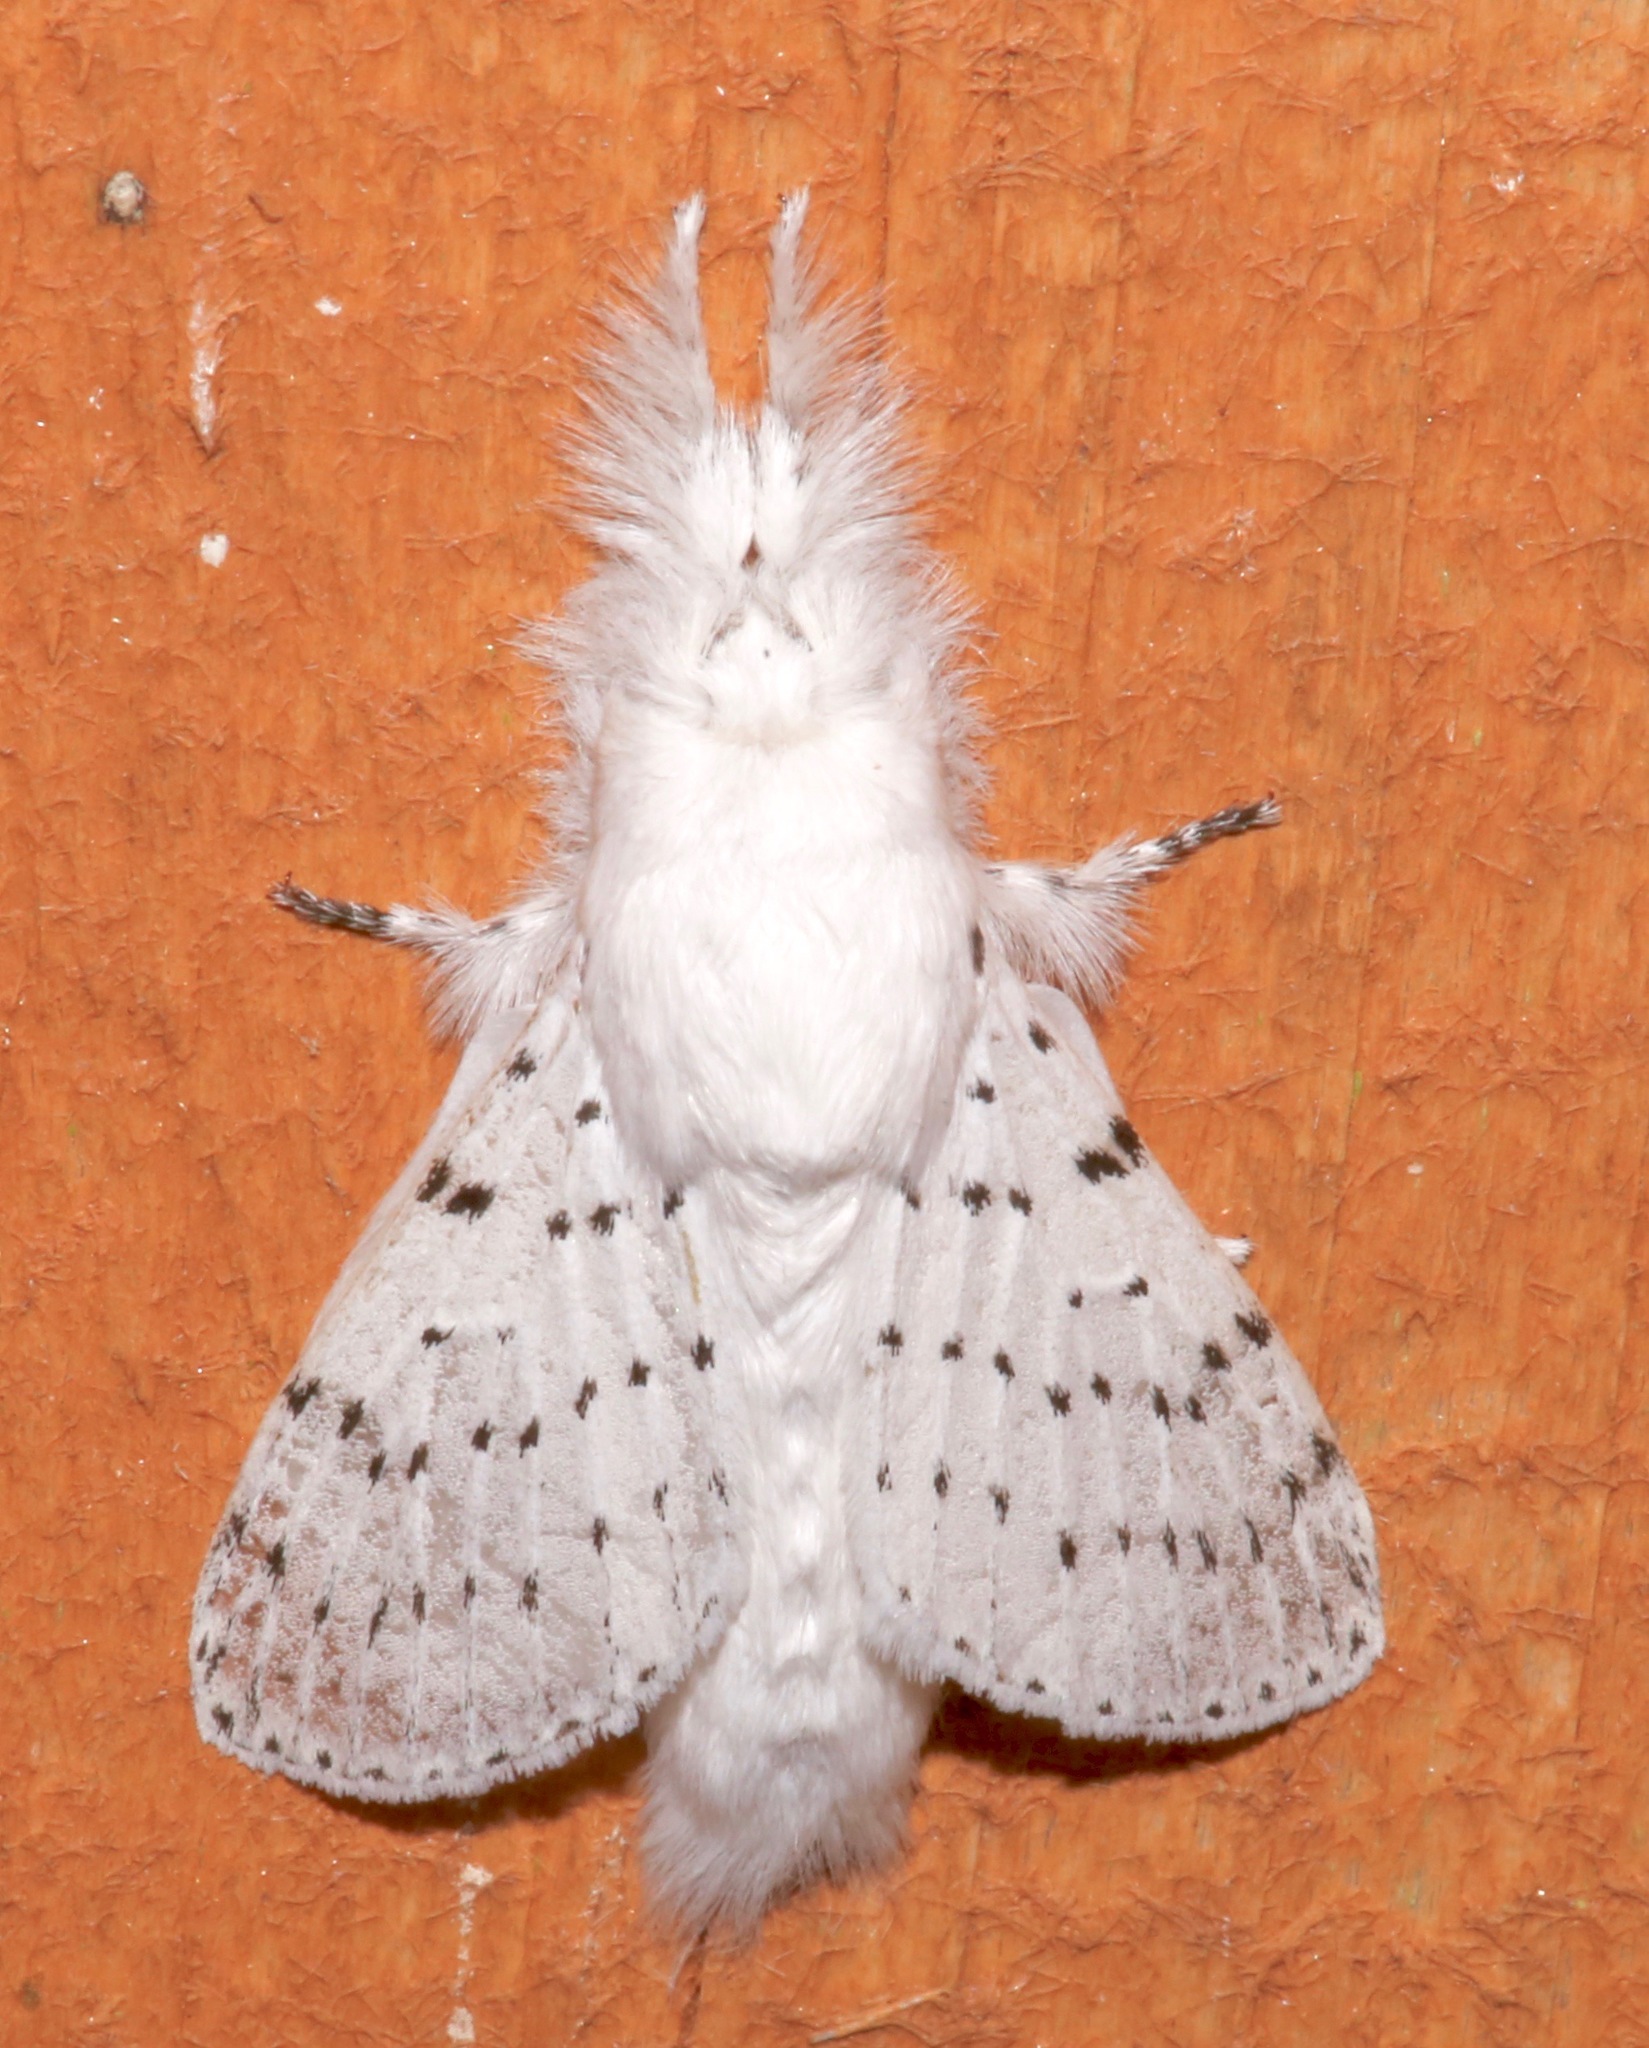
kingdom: Animalia
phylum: Arthropoda
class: Insecta
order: Lepidoptera
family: Lasiocampidae
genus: Artace
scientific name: Artace cribrarius
